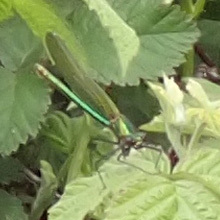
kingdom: Animalia
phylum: Arthropoda
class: Insecta
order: Odonata
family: Calopterygidae
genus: Calopteryx
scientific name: Calopteryx splendens
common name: Banded demoiselle
